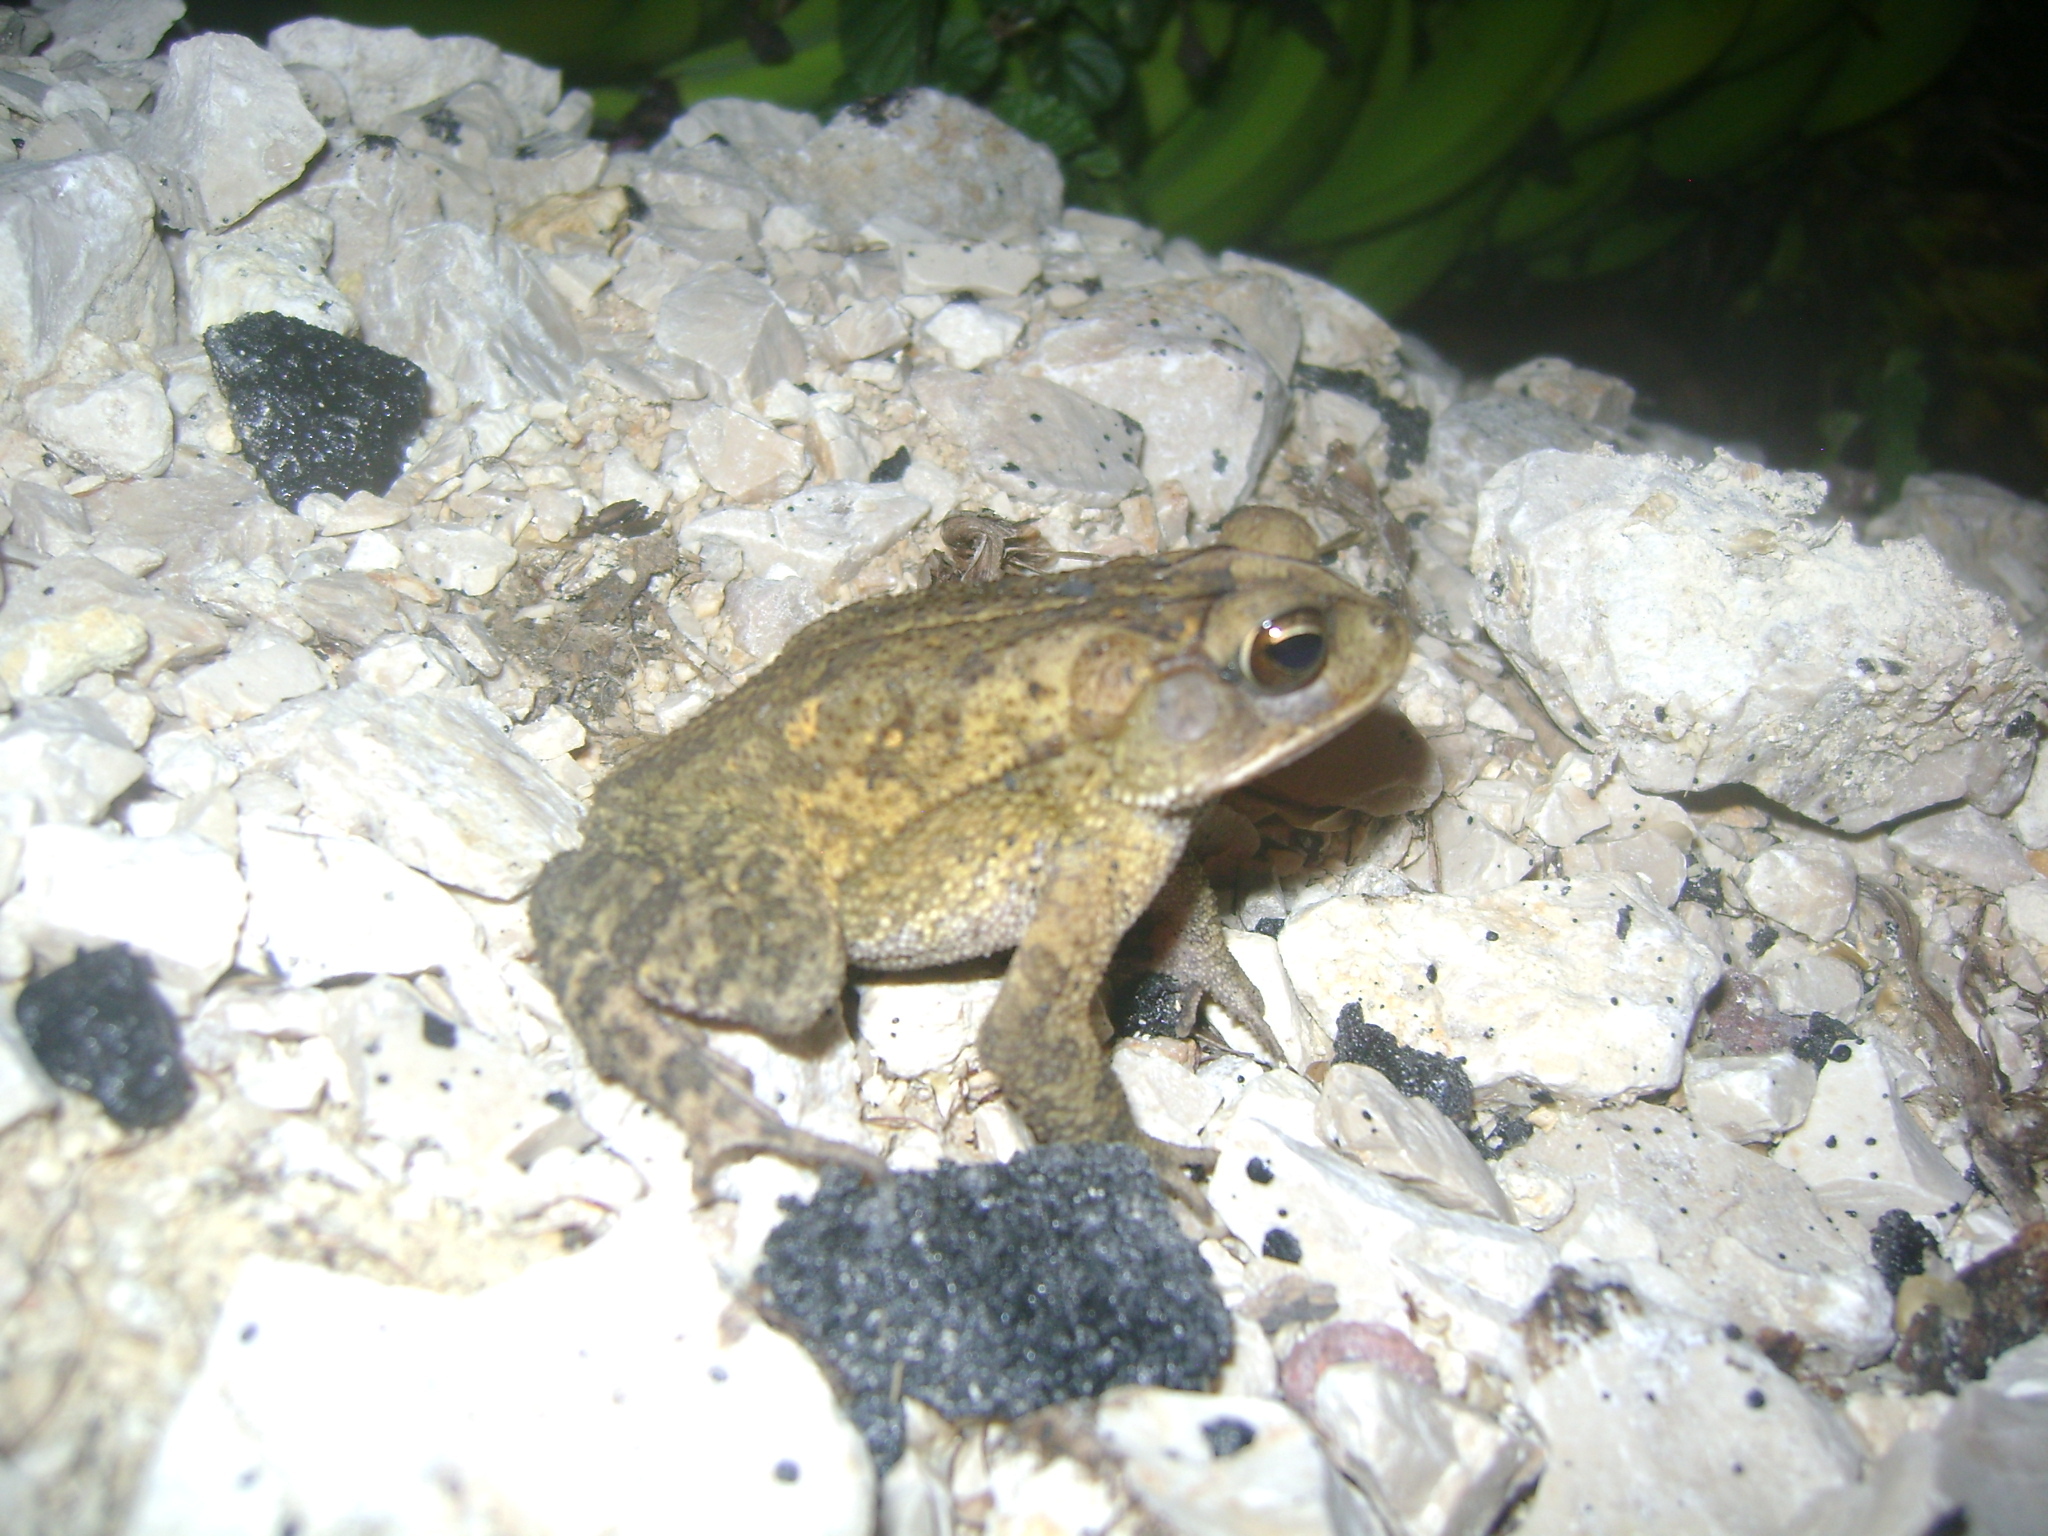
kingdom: Animalia
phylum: Chordata
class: Amphibia
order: Anura
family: Bufonidae
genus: Incilius
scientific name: Incilius valliceps
